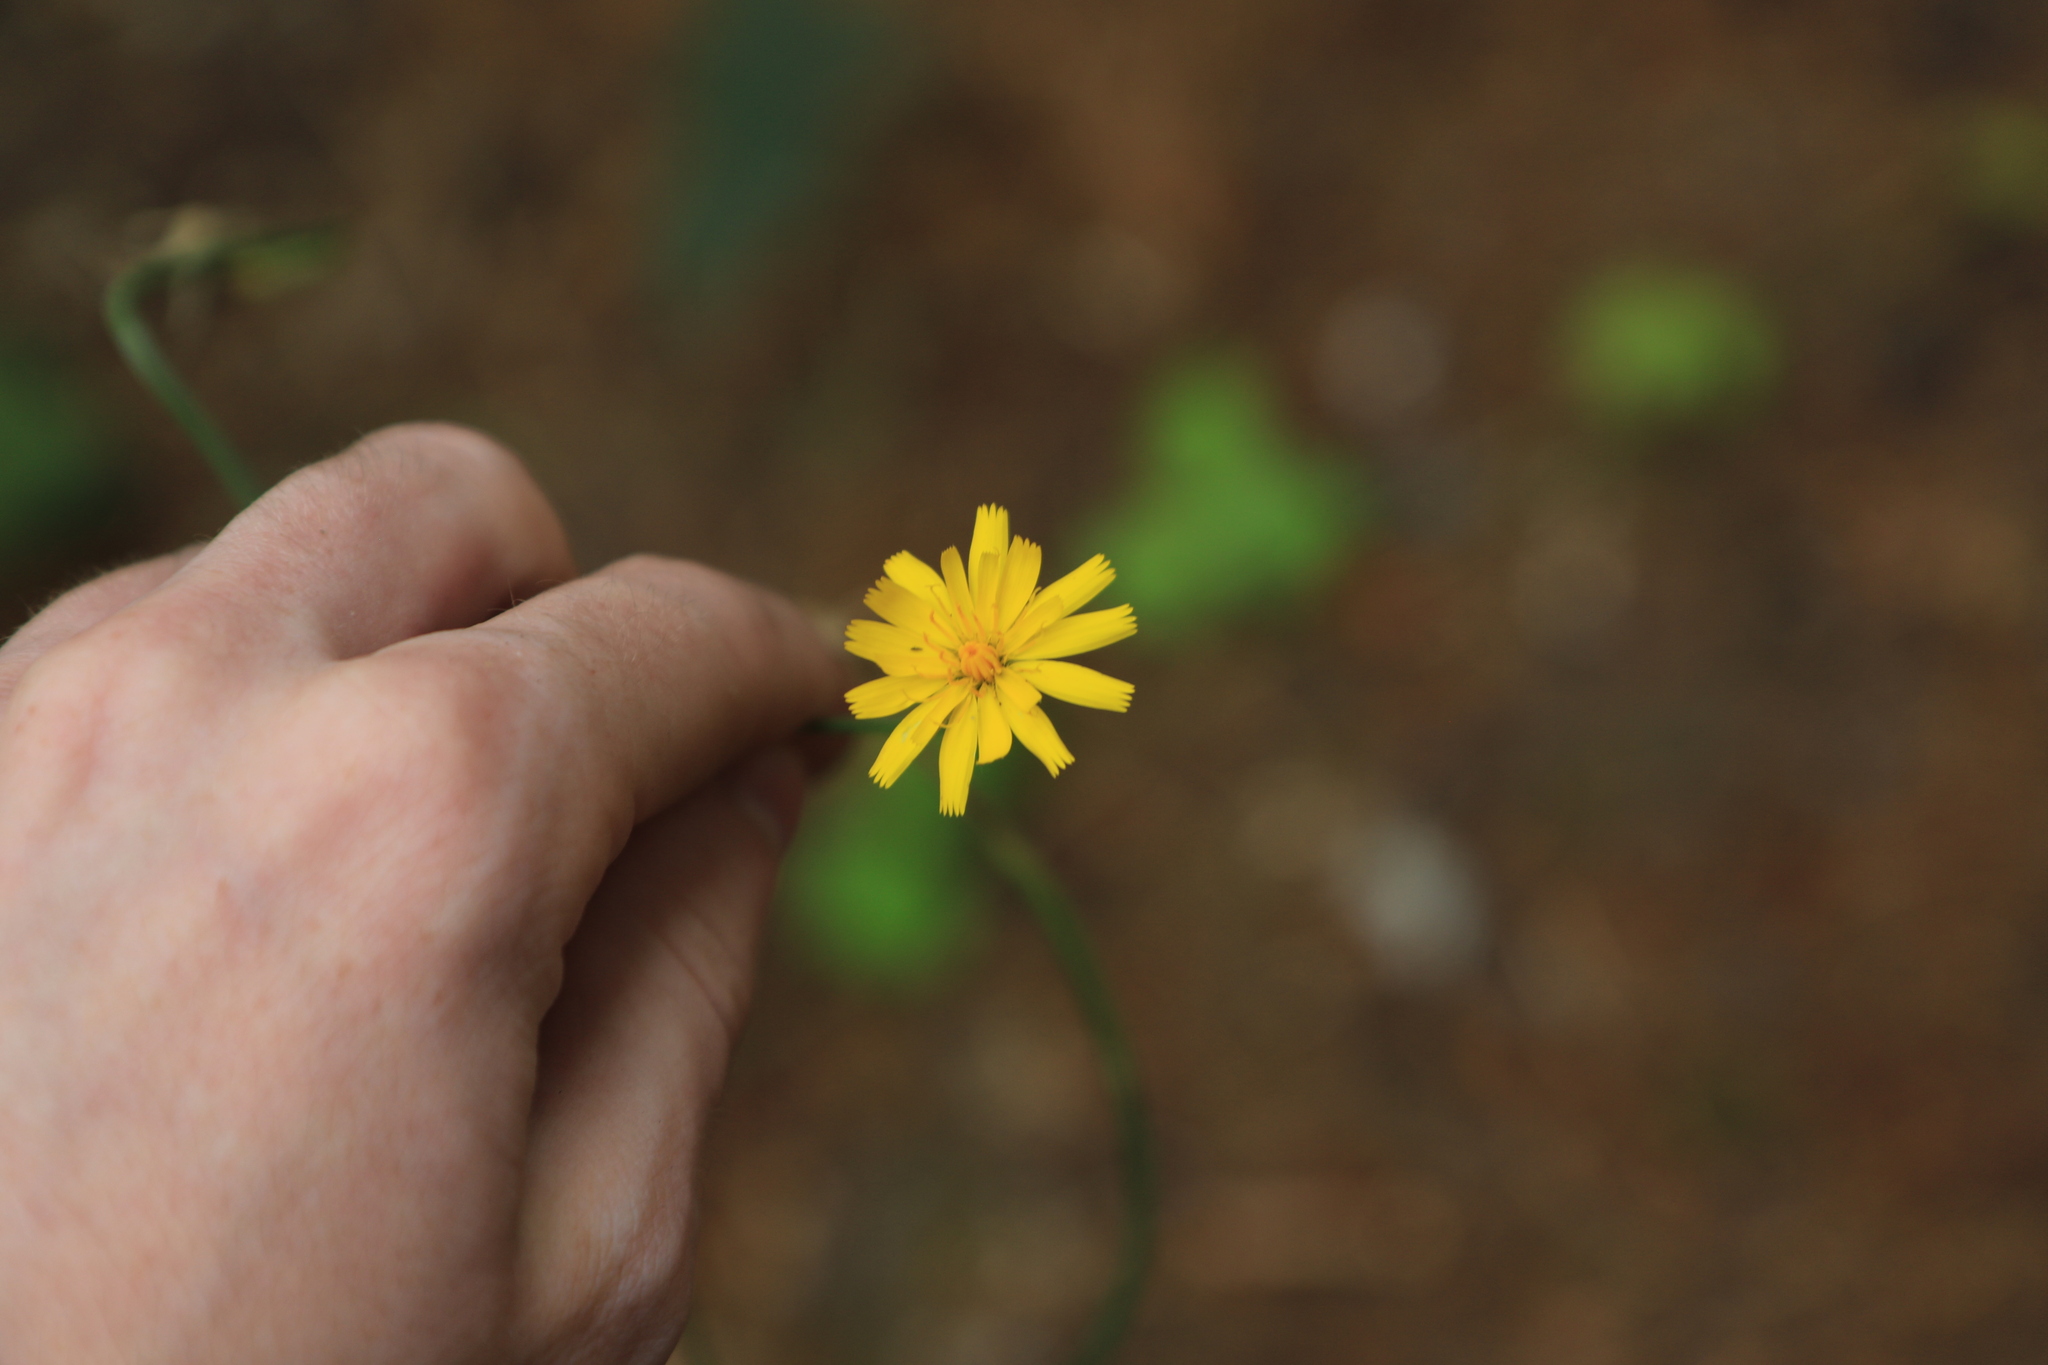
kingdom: Plantae
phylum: Tracheophyta
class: Magnoliopsida
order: Asterales
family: Asteraceae
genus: Hypochaeris
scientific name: Hypochaeris radicata
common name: Flatweed
